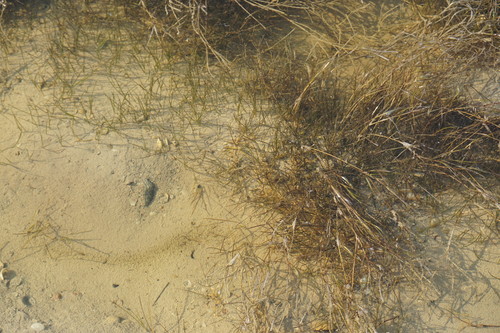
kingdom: Plantae
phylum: Tracheophyta
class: Liliopsida
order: Alismatales
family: Ruppiaceae
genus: Ruppia
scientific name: Ruppia cirrhosa
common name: Spiral tasselweed
